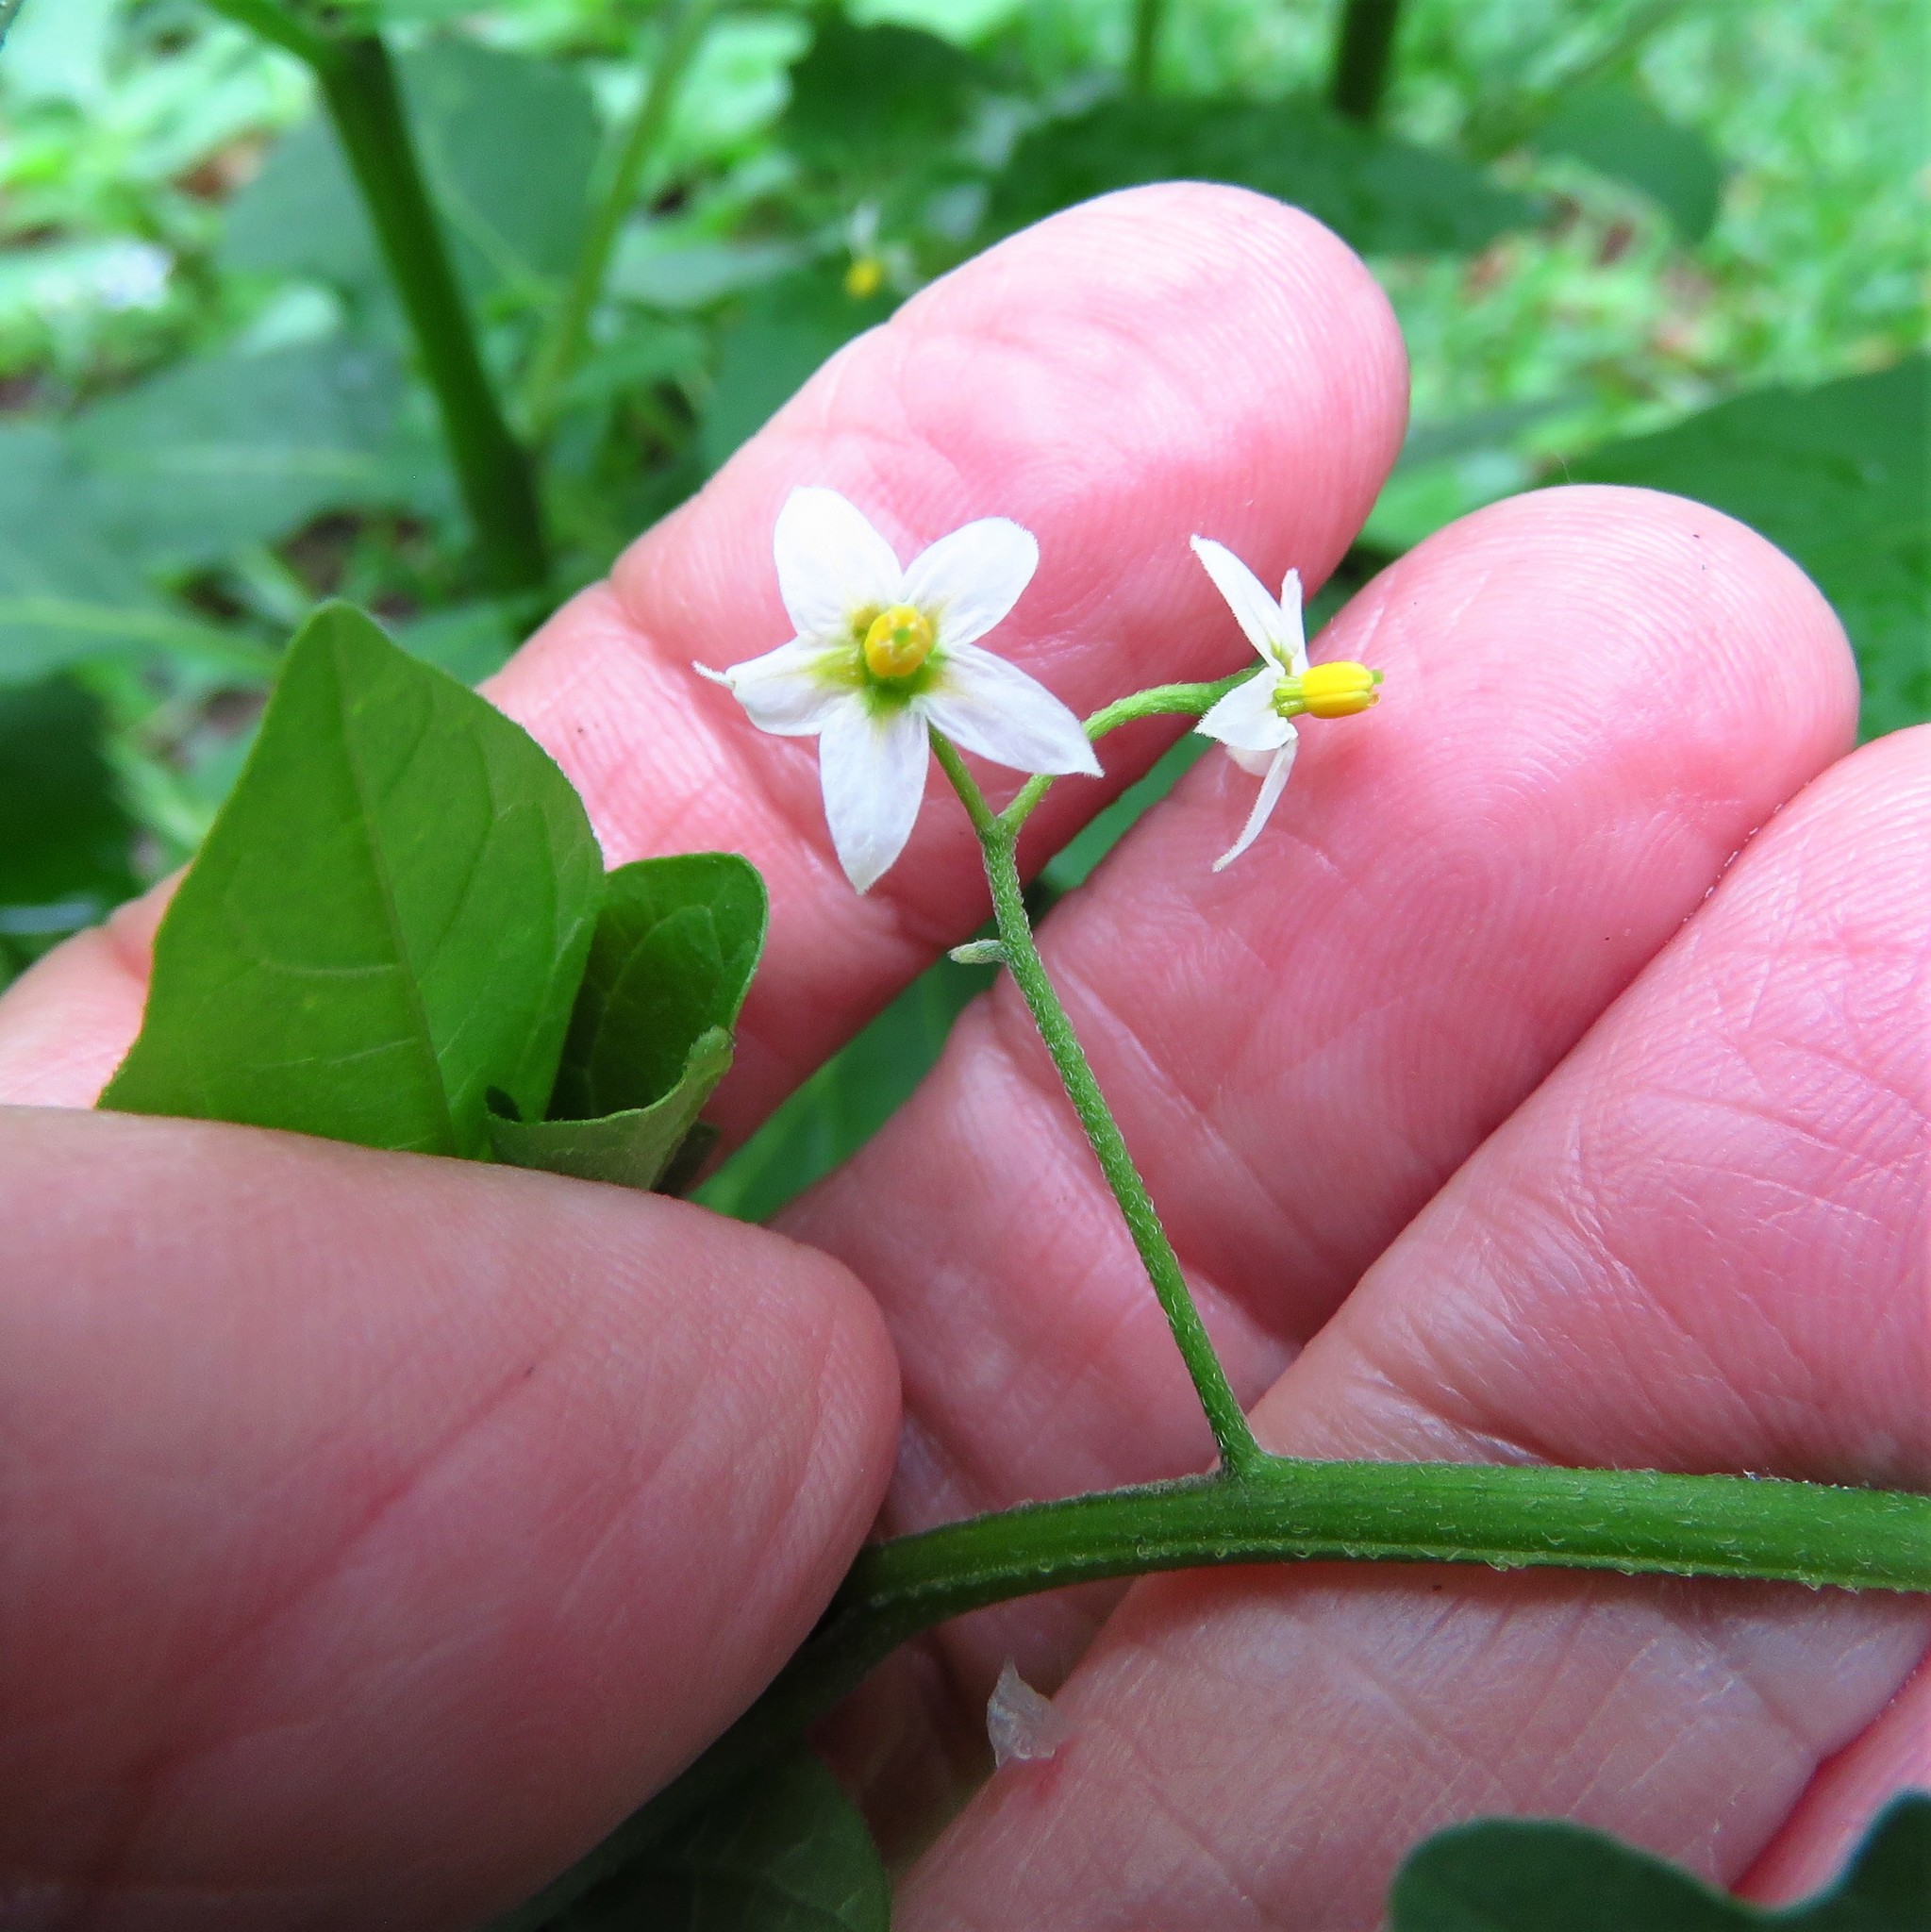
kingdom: Plantae
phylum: Tracheophyta
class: Magnoliopsida
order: Solanales
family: Solanaceae
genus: Solanum
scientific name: Solanum emulans
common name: Eastern black nightshade
